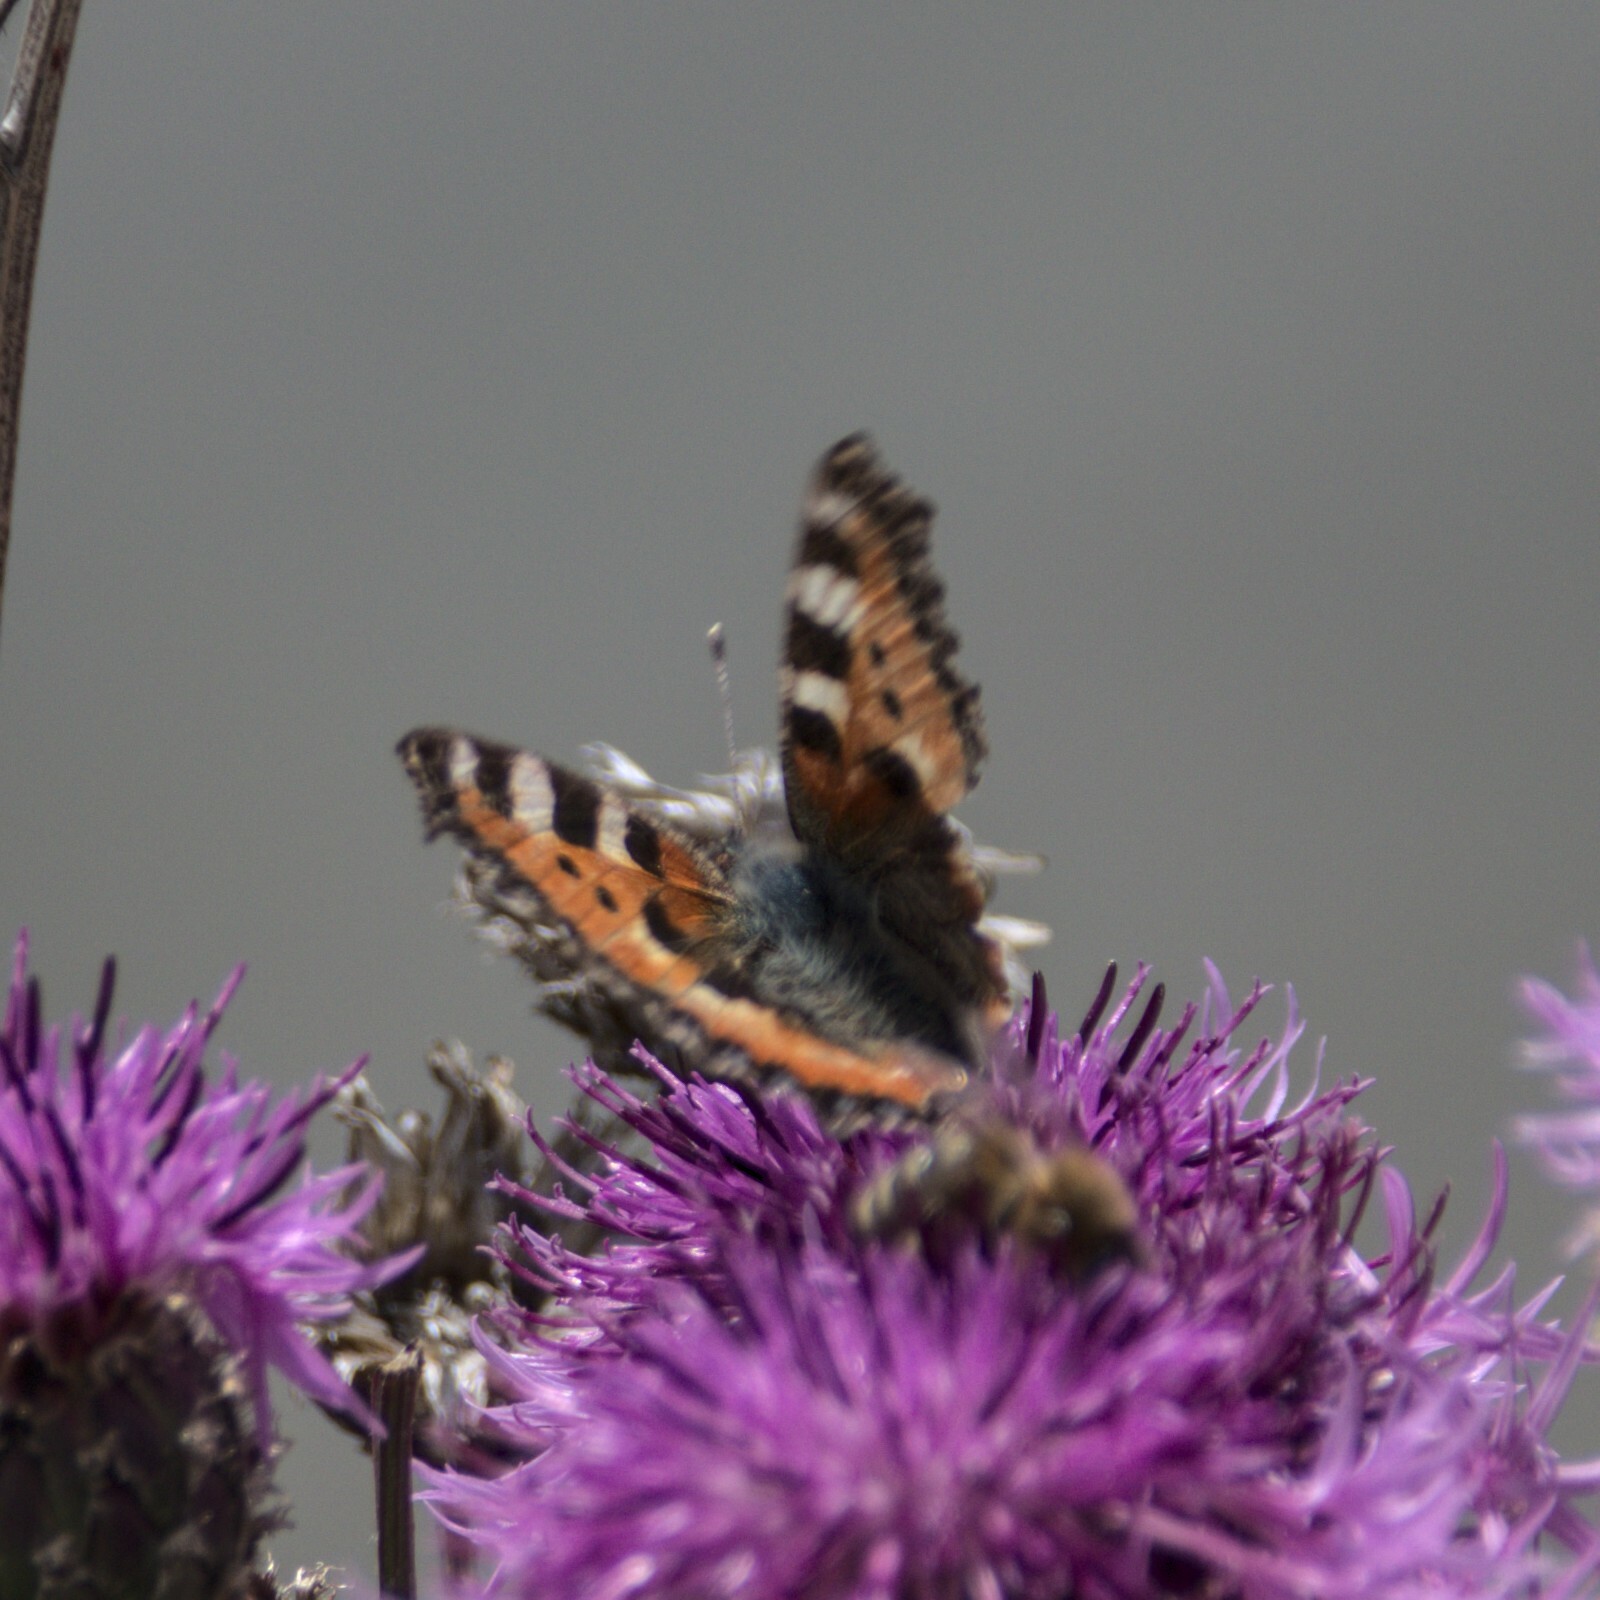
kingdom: Animalia
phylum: Arthropoda
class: Insecta
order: Lepidoptera
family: Nymphalidae
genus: Aglais
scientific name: Aglais urticae
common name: Small tortoiseshell
